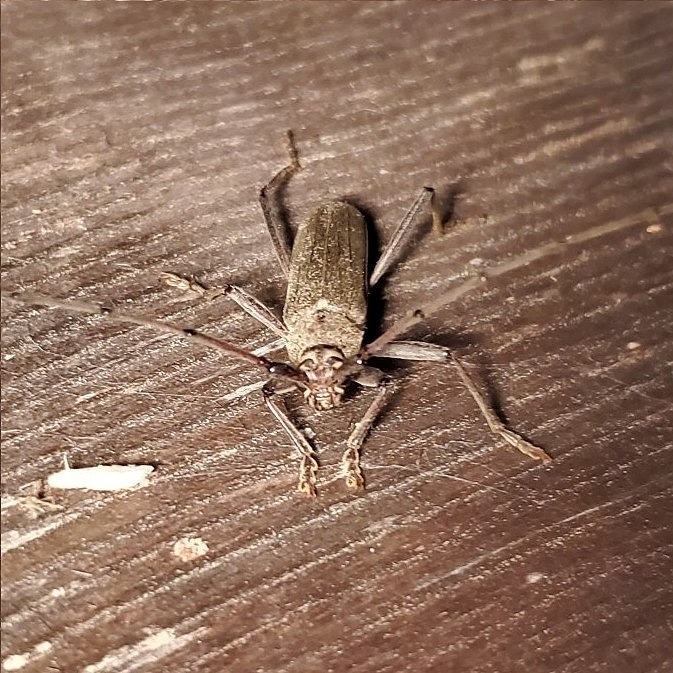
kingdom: Animalia
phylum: Arthropoda
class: Insecta
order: Coleoptera
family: Cerambycidae
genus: Knulliana
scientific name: Knulliana cincta
